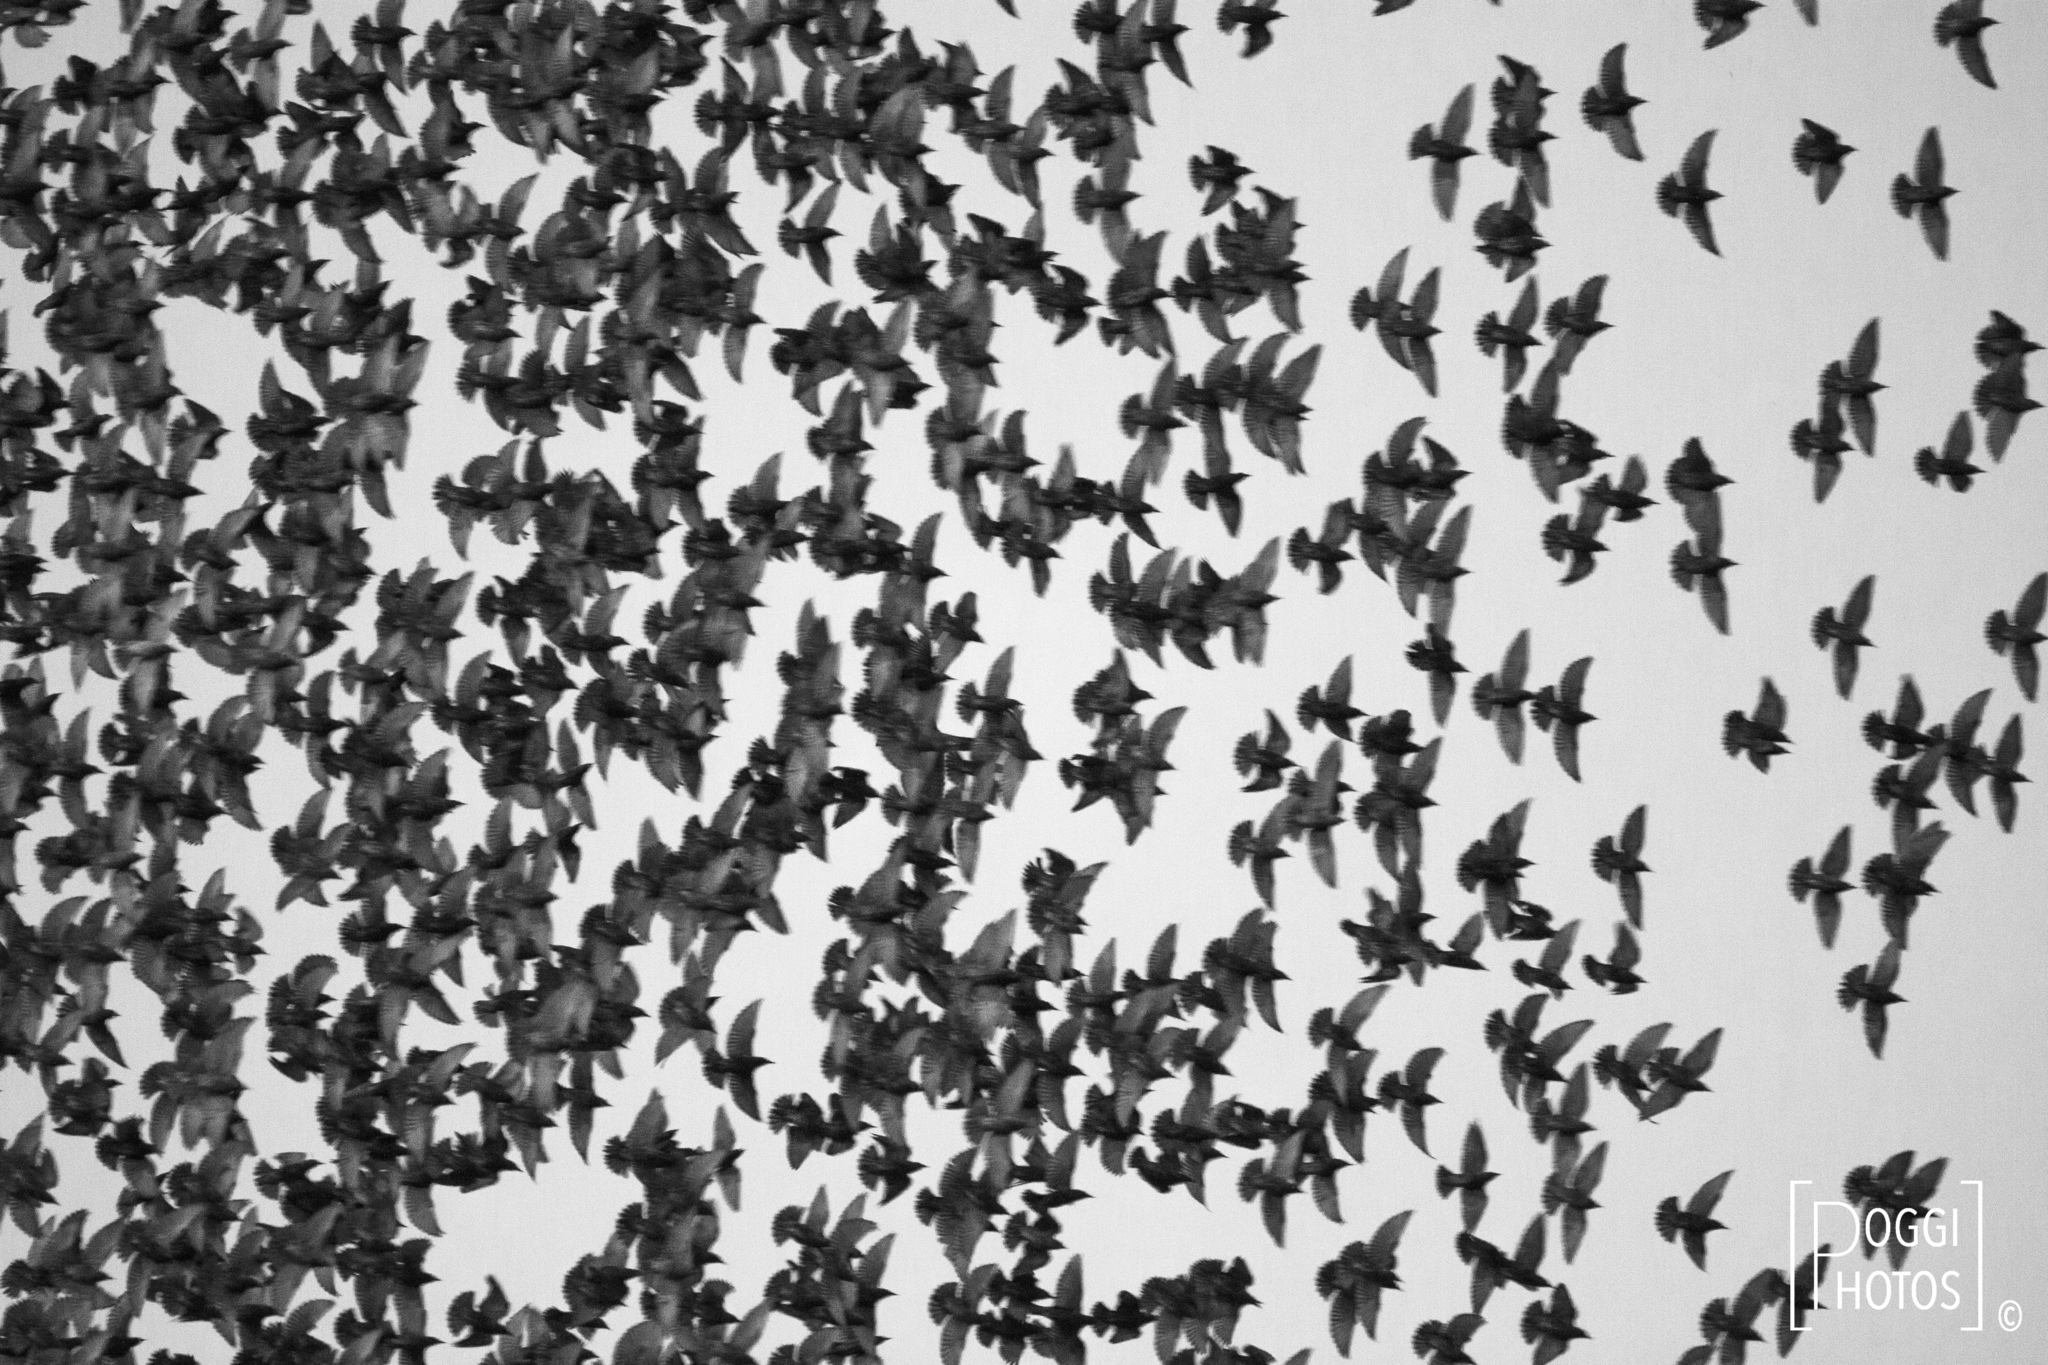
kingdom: Animalia
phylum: Chordata
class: Aves
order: Passeriformes
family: Sturnidae
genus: Sturnus
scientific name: Sturnus vulgaris
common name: Common starling
